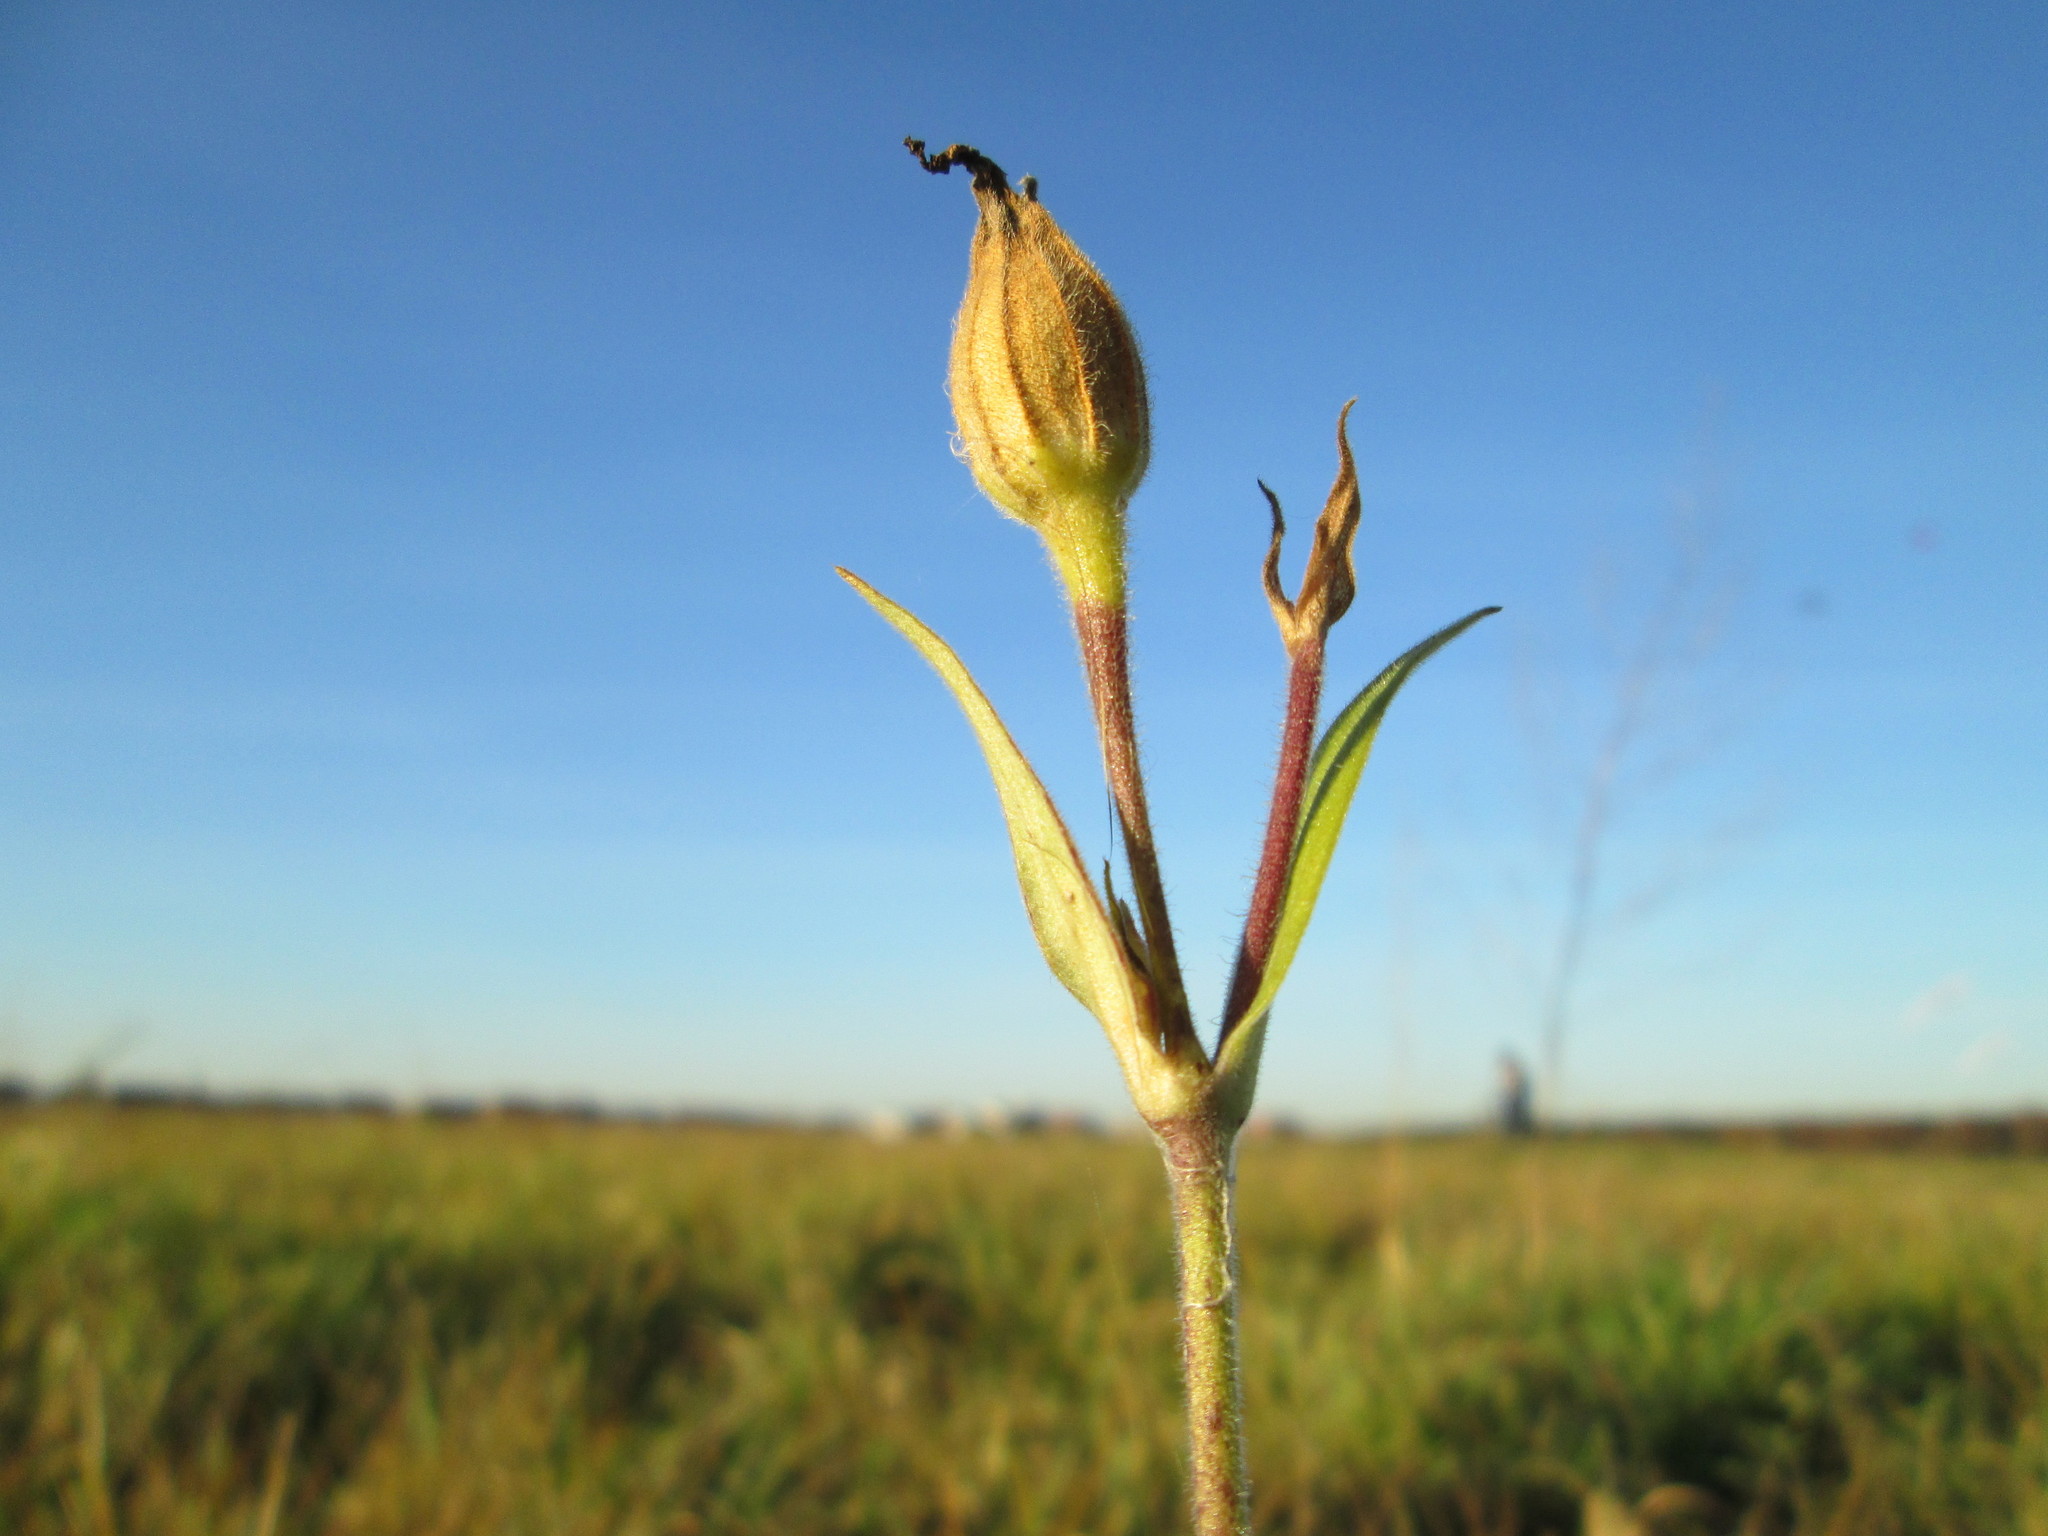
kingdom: Plantae
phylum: Tracheophyta
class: Magnoliopsida
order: Caryophyllales
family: Caryophyllaceae
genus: Silene
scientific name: Silene latifolia
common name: White campion
